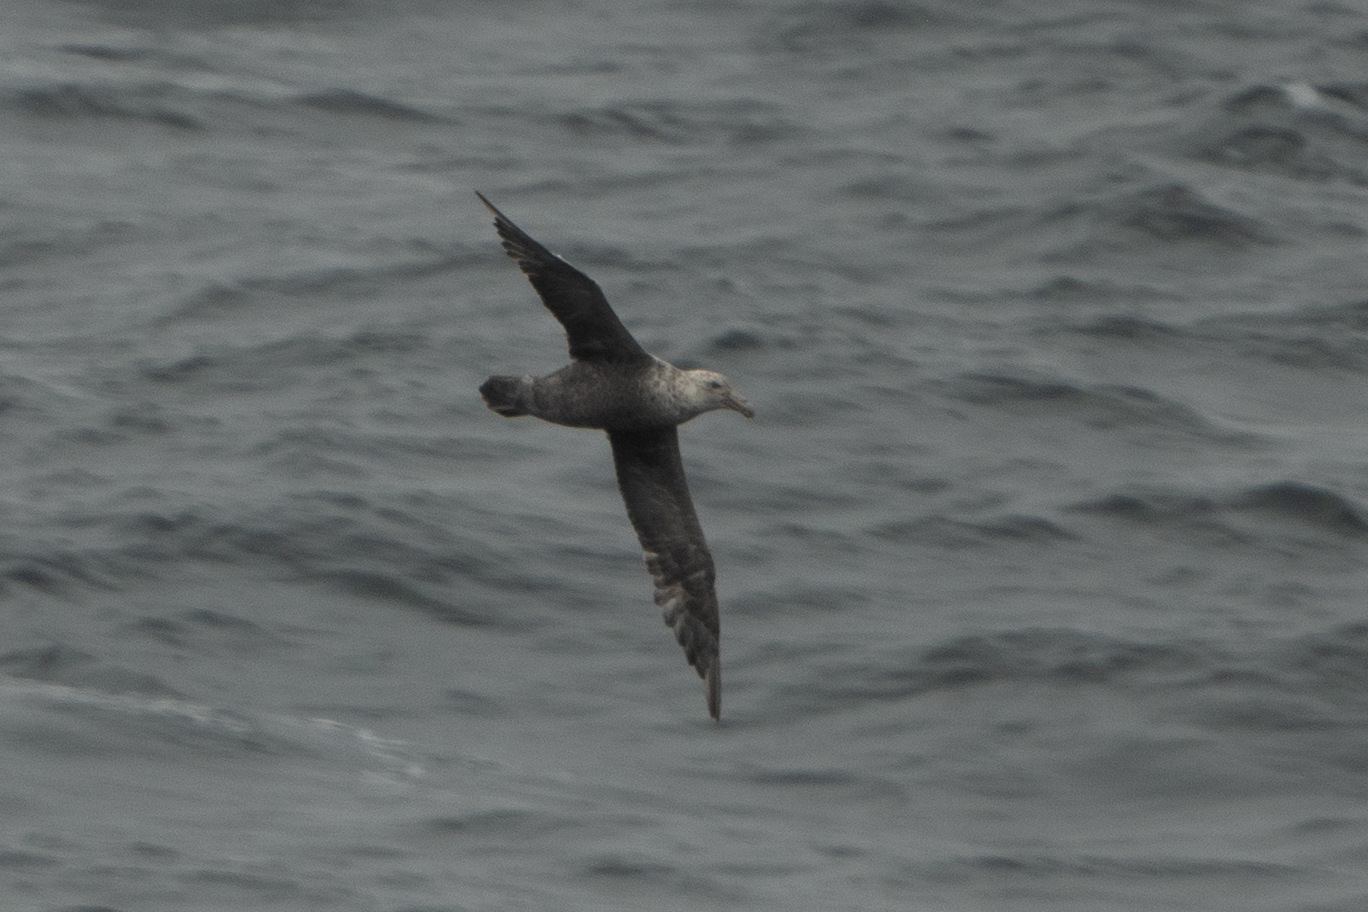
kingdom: Animalia
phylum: Chordata
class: Aves
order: Procellariiformes
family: Procellariidae
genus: Macronectes
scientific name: Macronectes giganteus
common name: Southern giant petrel
